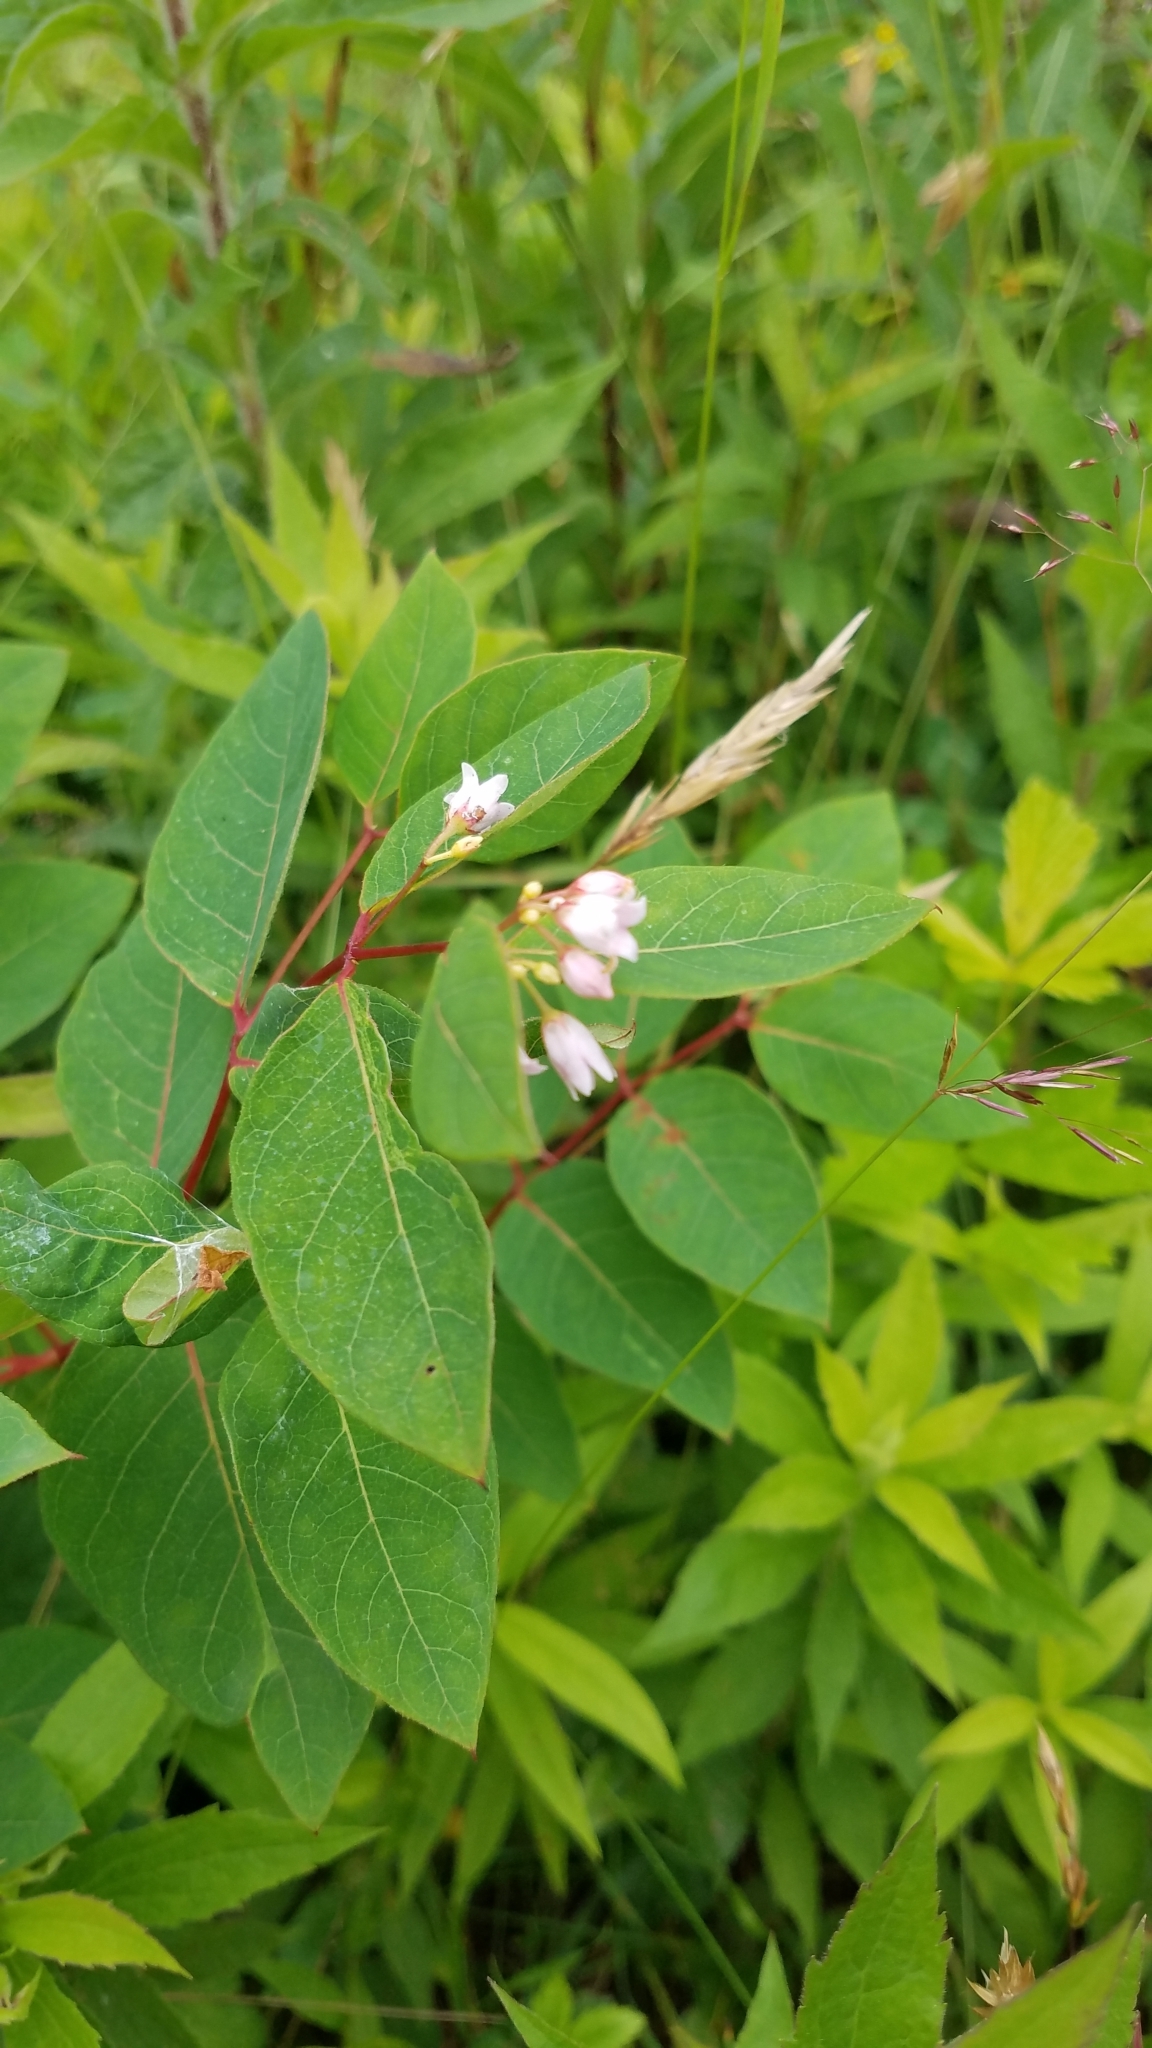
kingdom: Plantae
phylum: Tracheophyta
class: Magnoliopsida
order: Gentianales
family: Apocynaceae
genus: Apocynum
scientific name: Apocynum androsaemifolium
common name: Spreading dogbane
